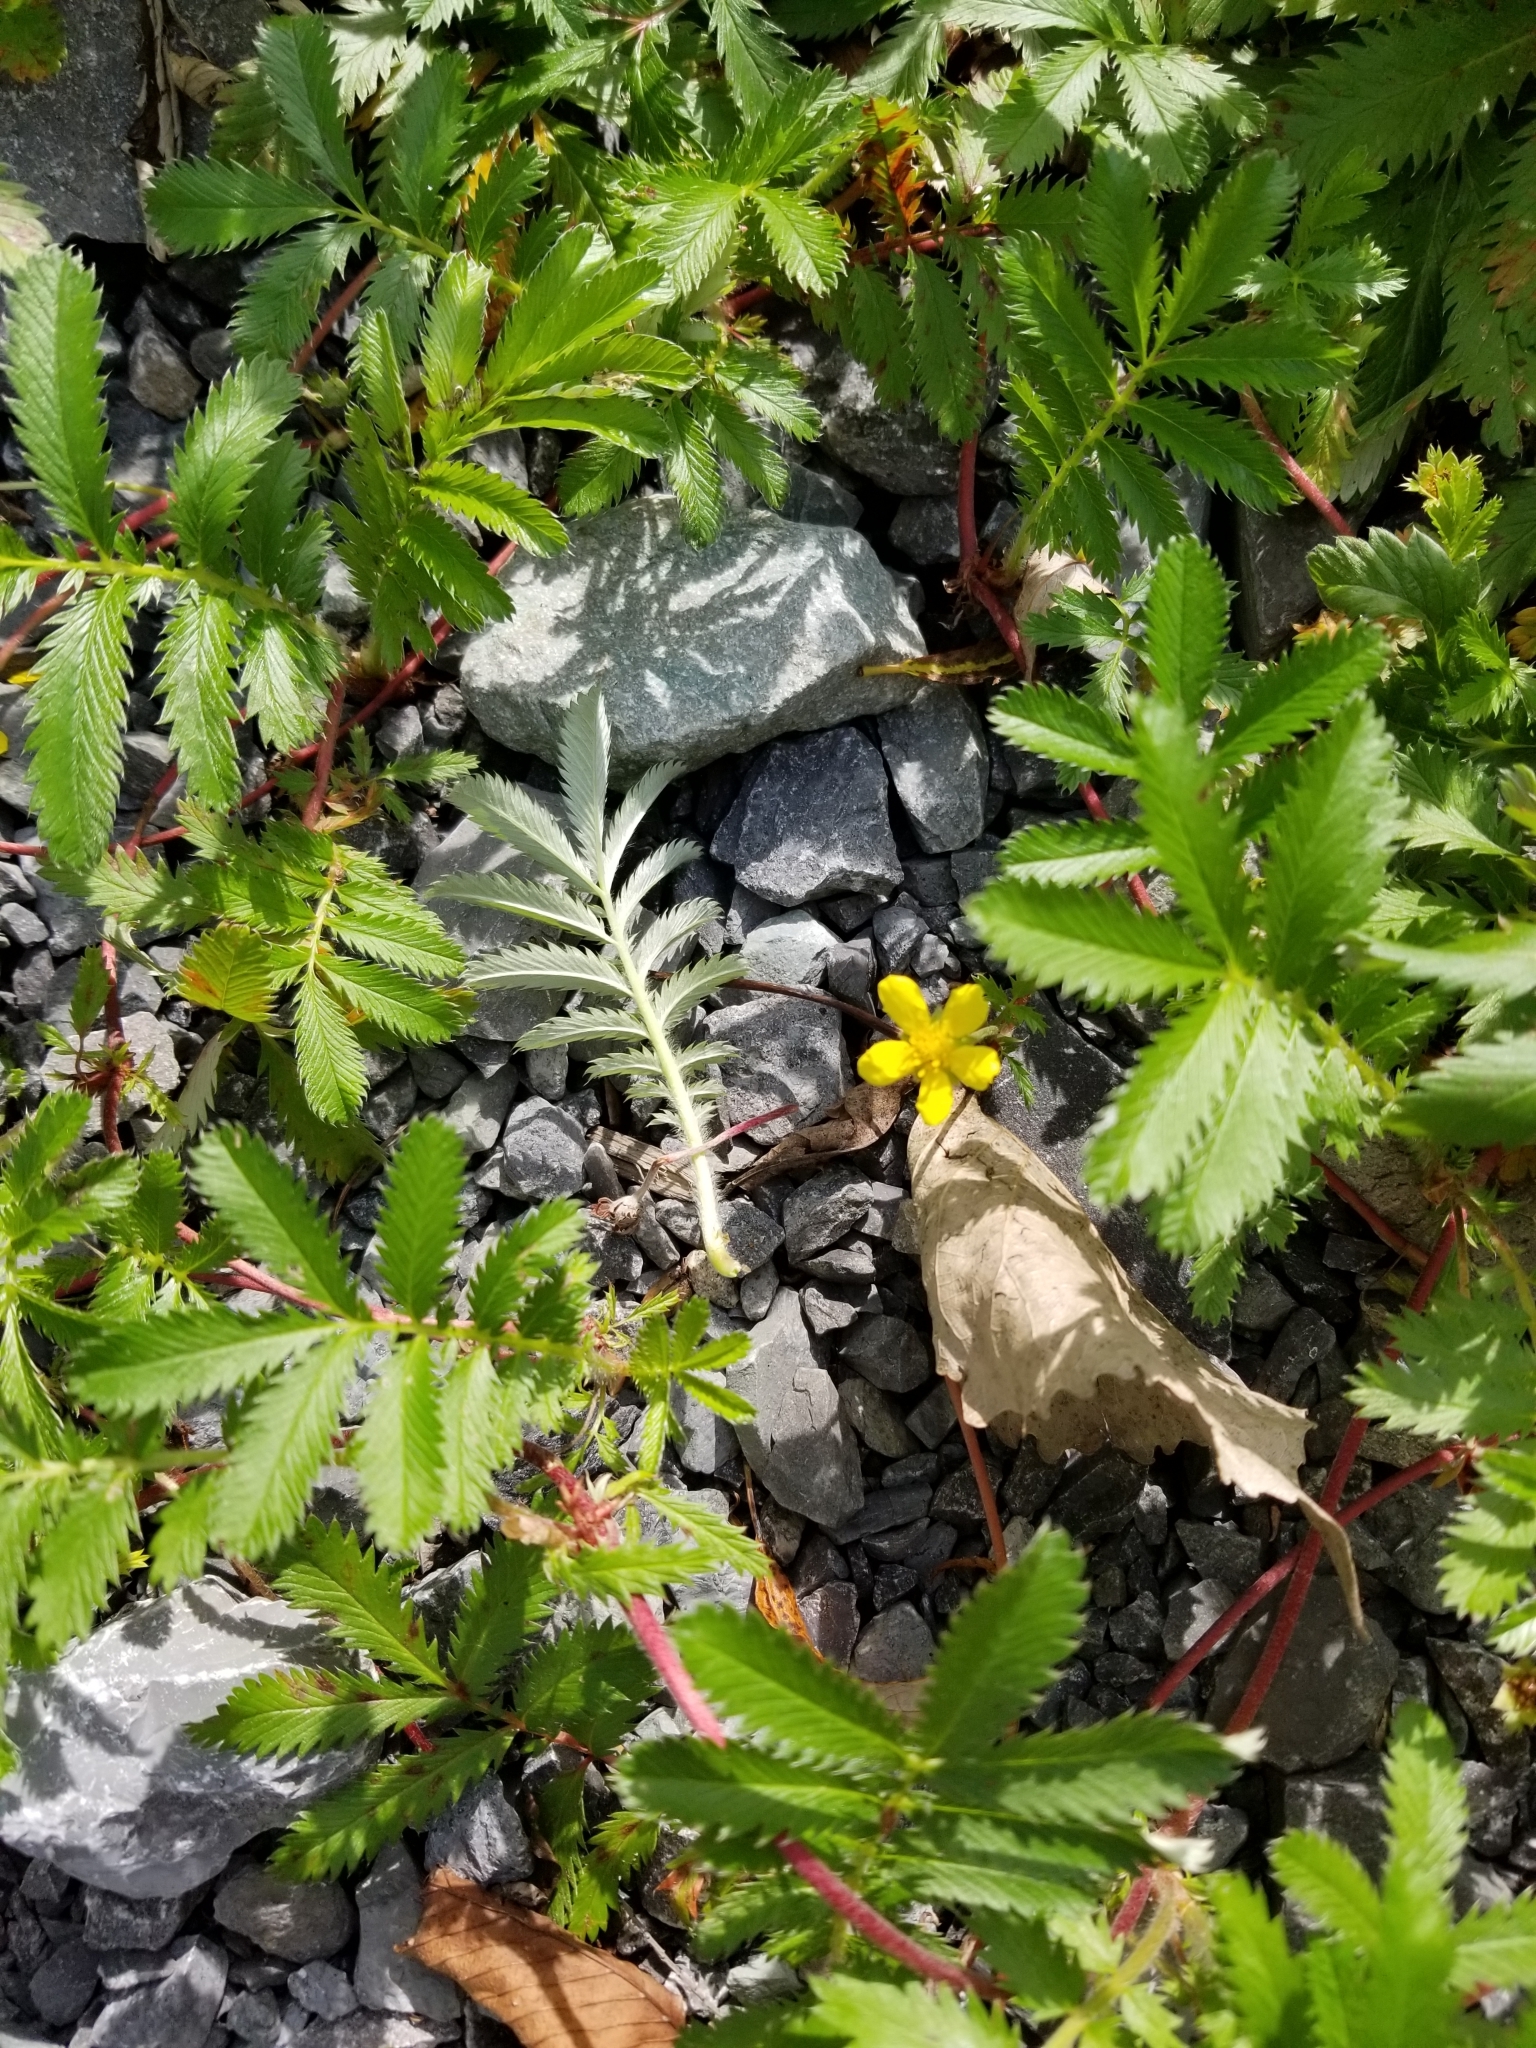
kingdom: Plantae
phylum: Tracheophyta
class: Magnoliopsida
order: Rosales
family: Rosaceae
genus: Argentina
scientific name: Argentina anserina
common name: Common silverweed
